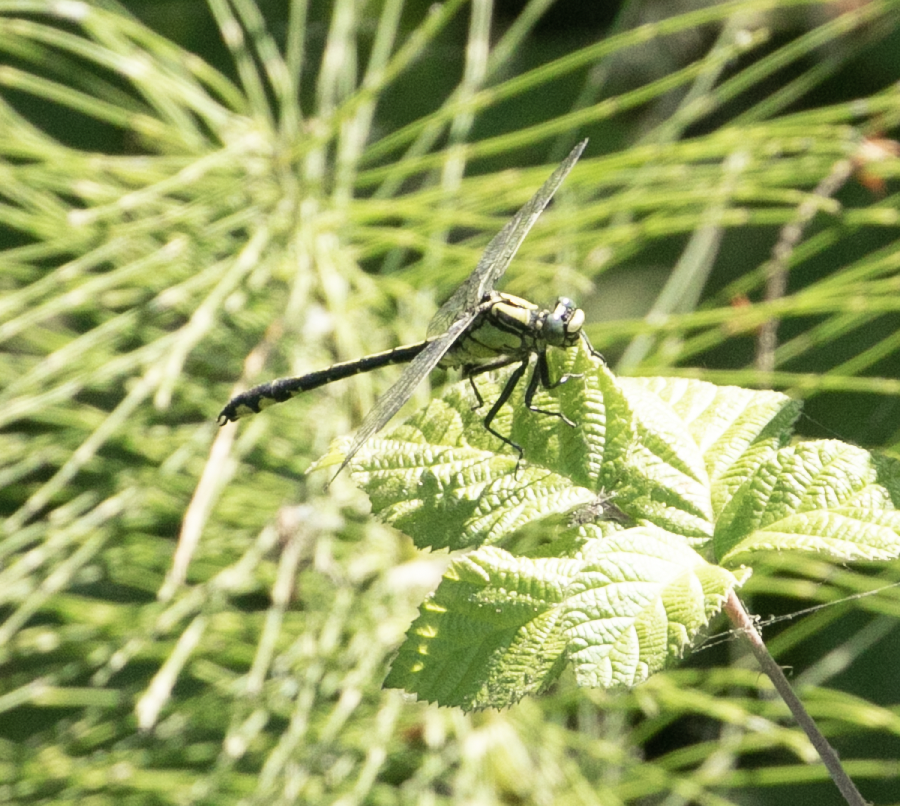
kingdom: Animalia
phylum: Arthropoda
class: Insecta
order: Odonata
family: Gomphidae
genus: Gomphus
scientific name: Gomphus vulgatissimus
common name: Club-tailed dragonfly
